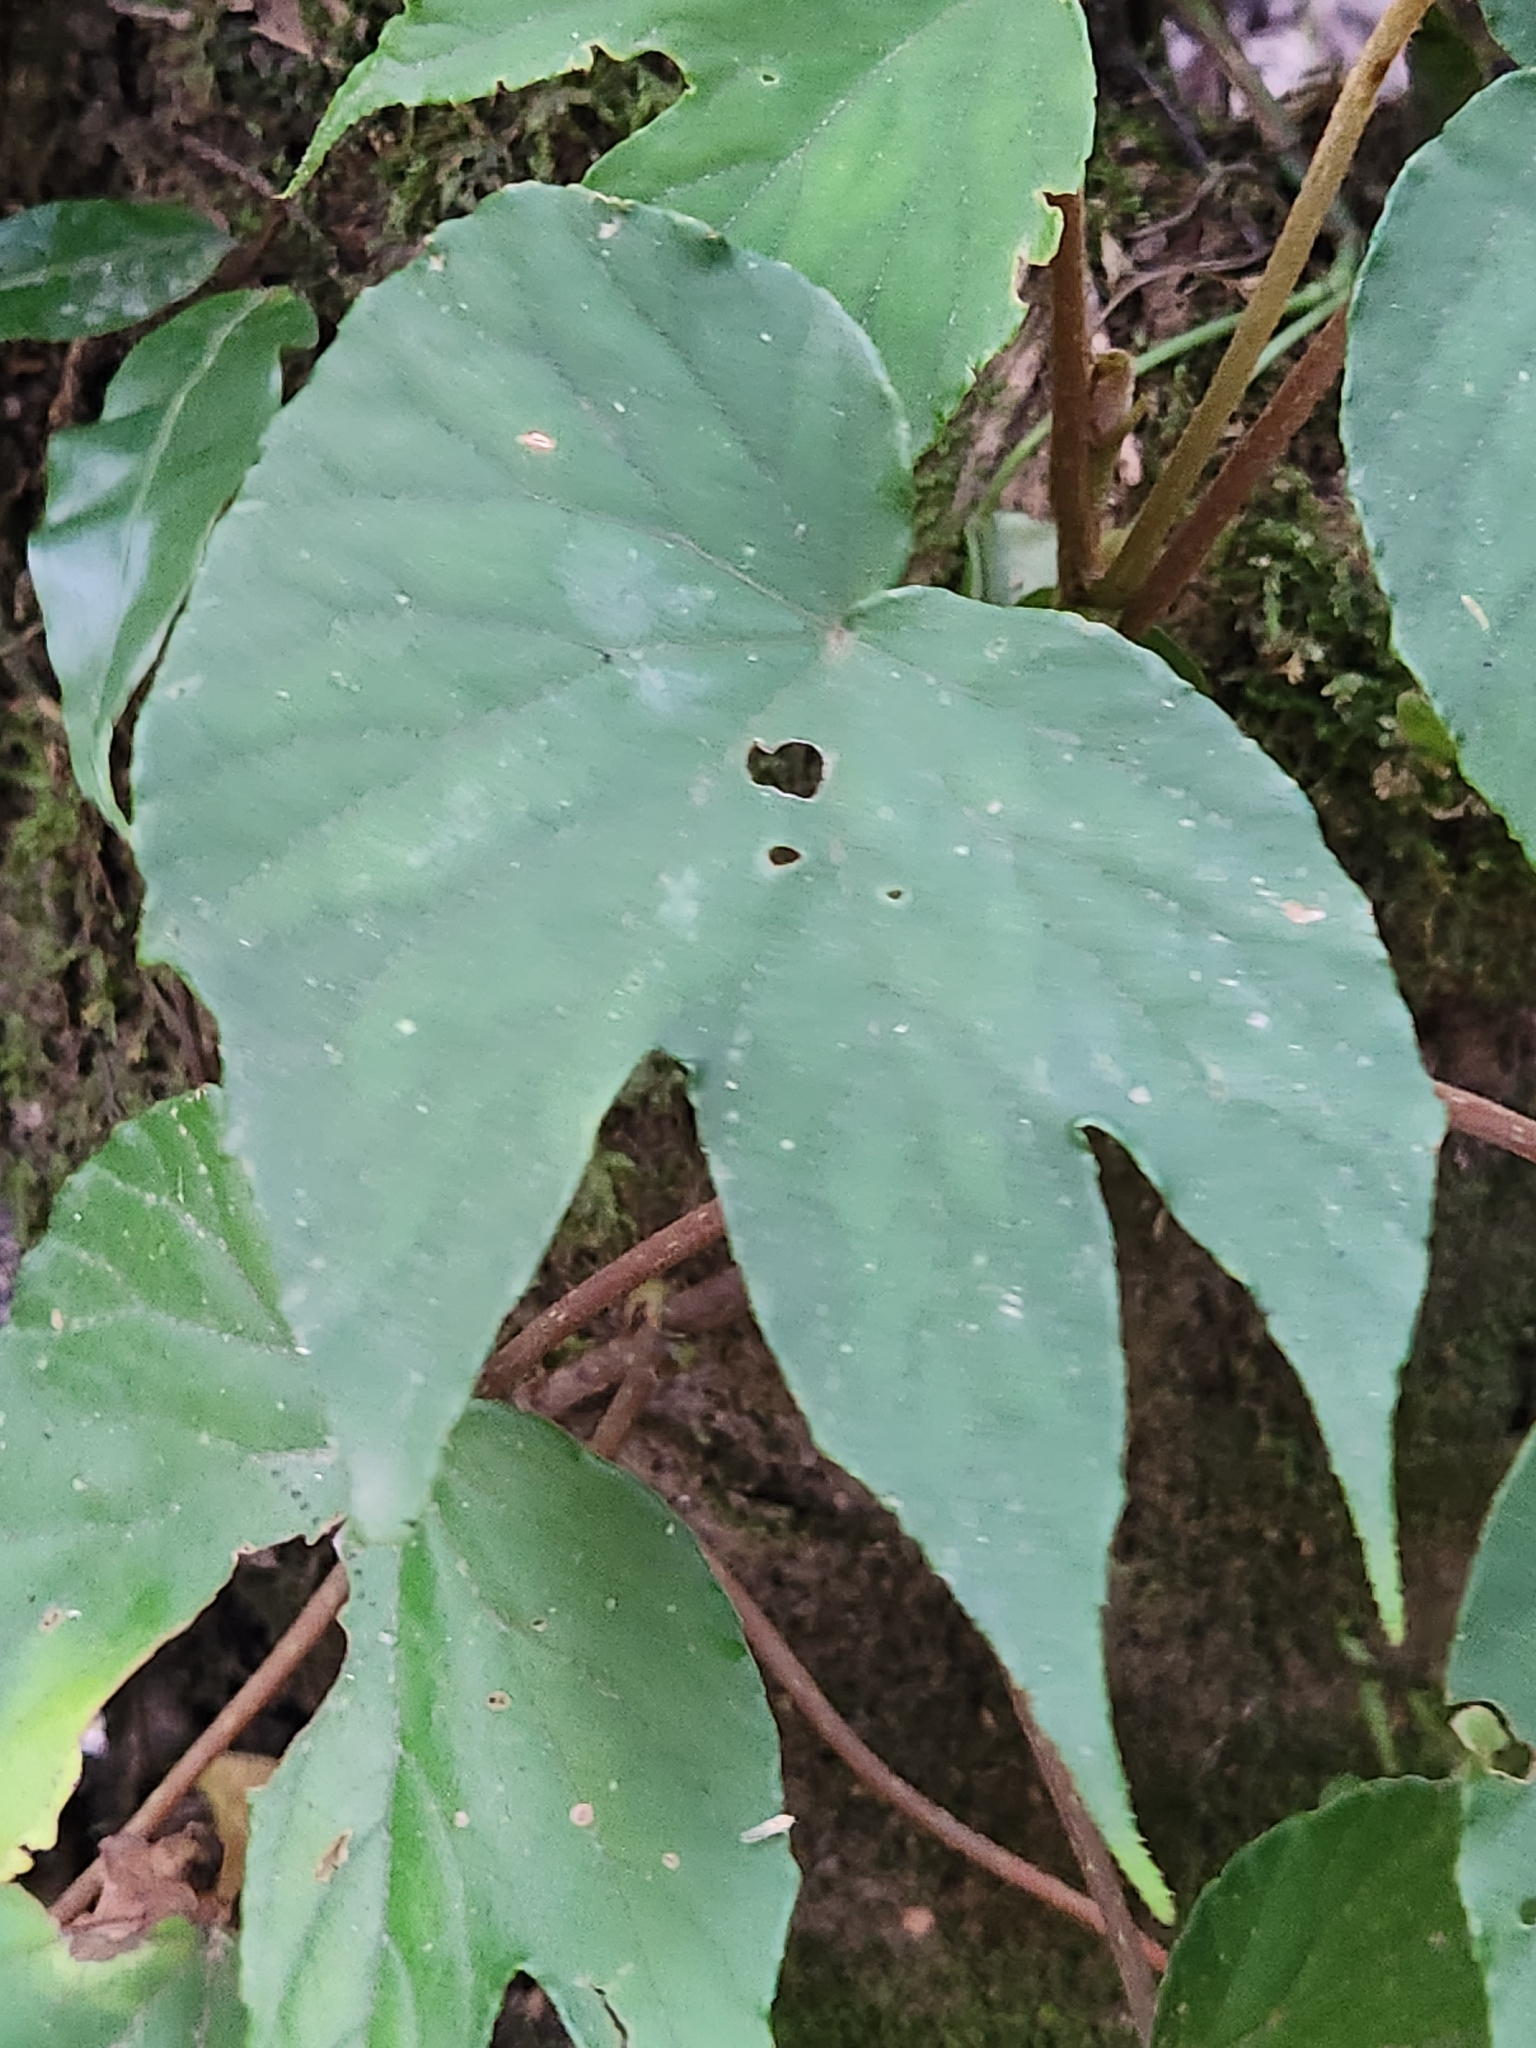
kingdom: Plantae
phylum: Tracheophyta
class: Magnoliopsida
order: Cucurbitales
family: Begoniaceae
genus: Begonia
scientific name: Begonia broussonetiifolia
